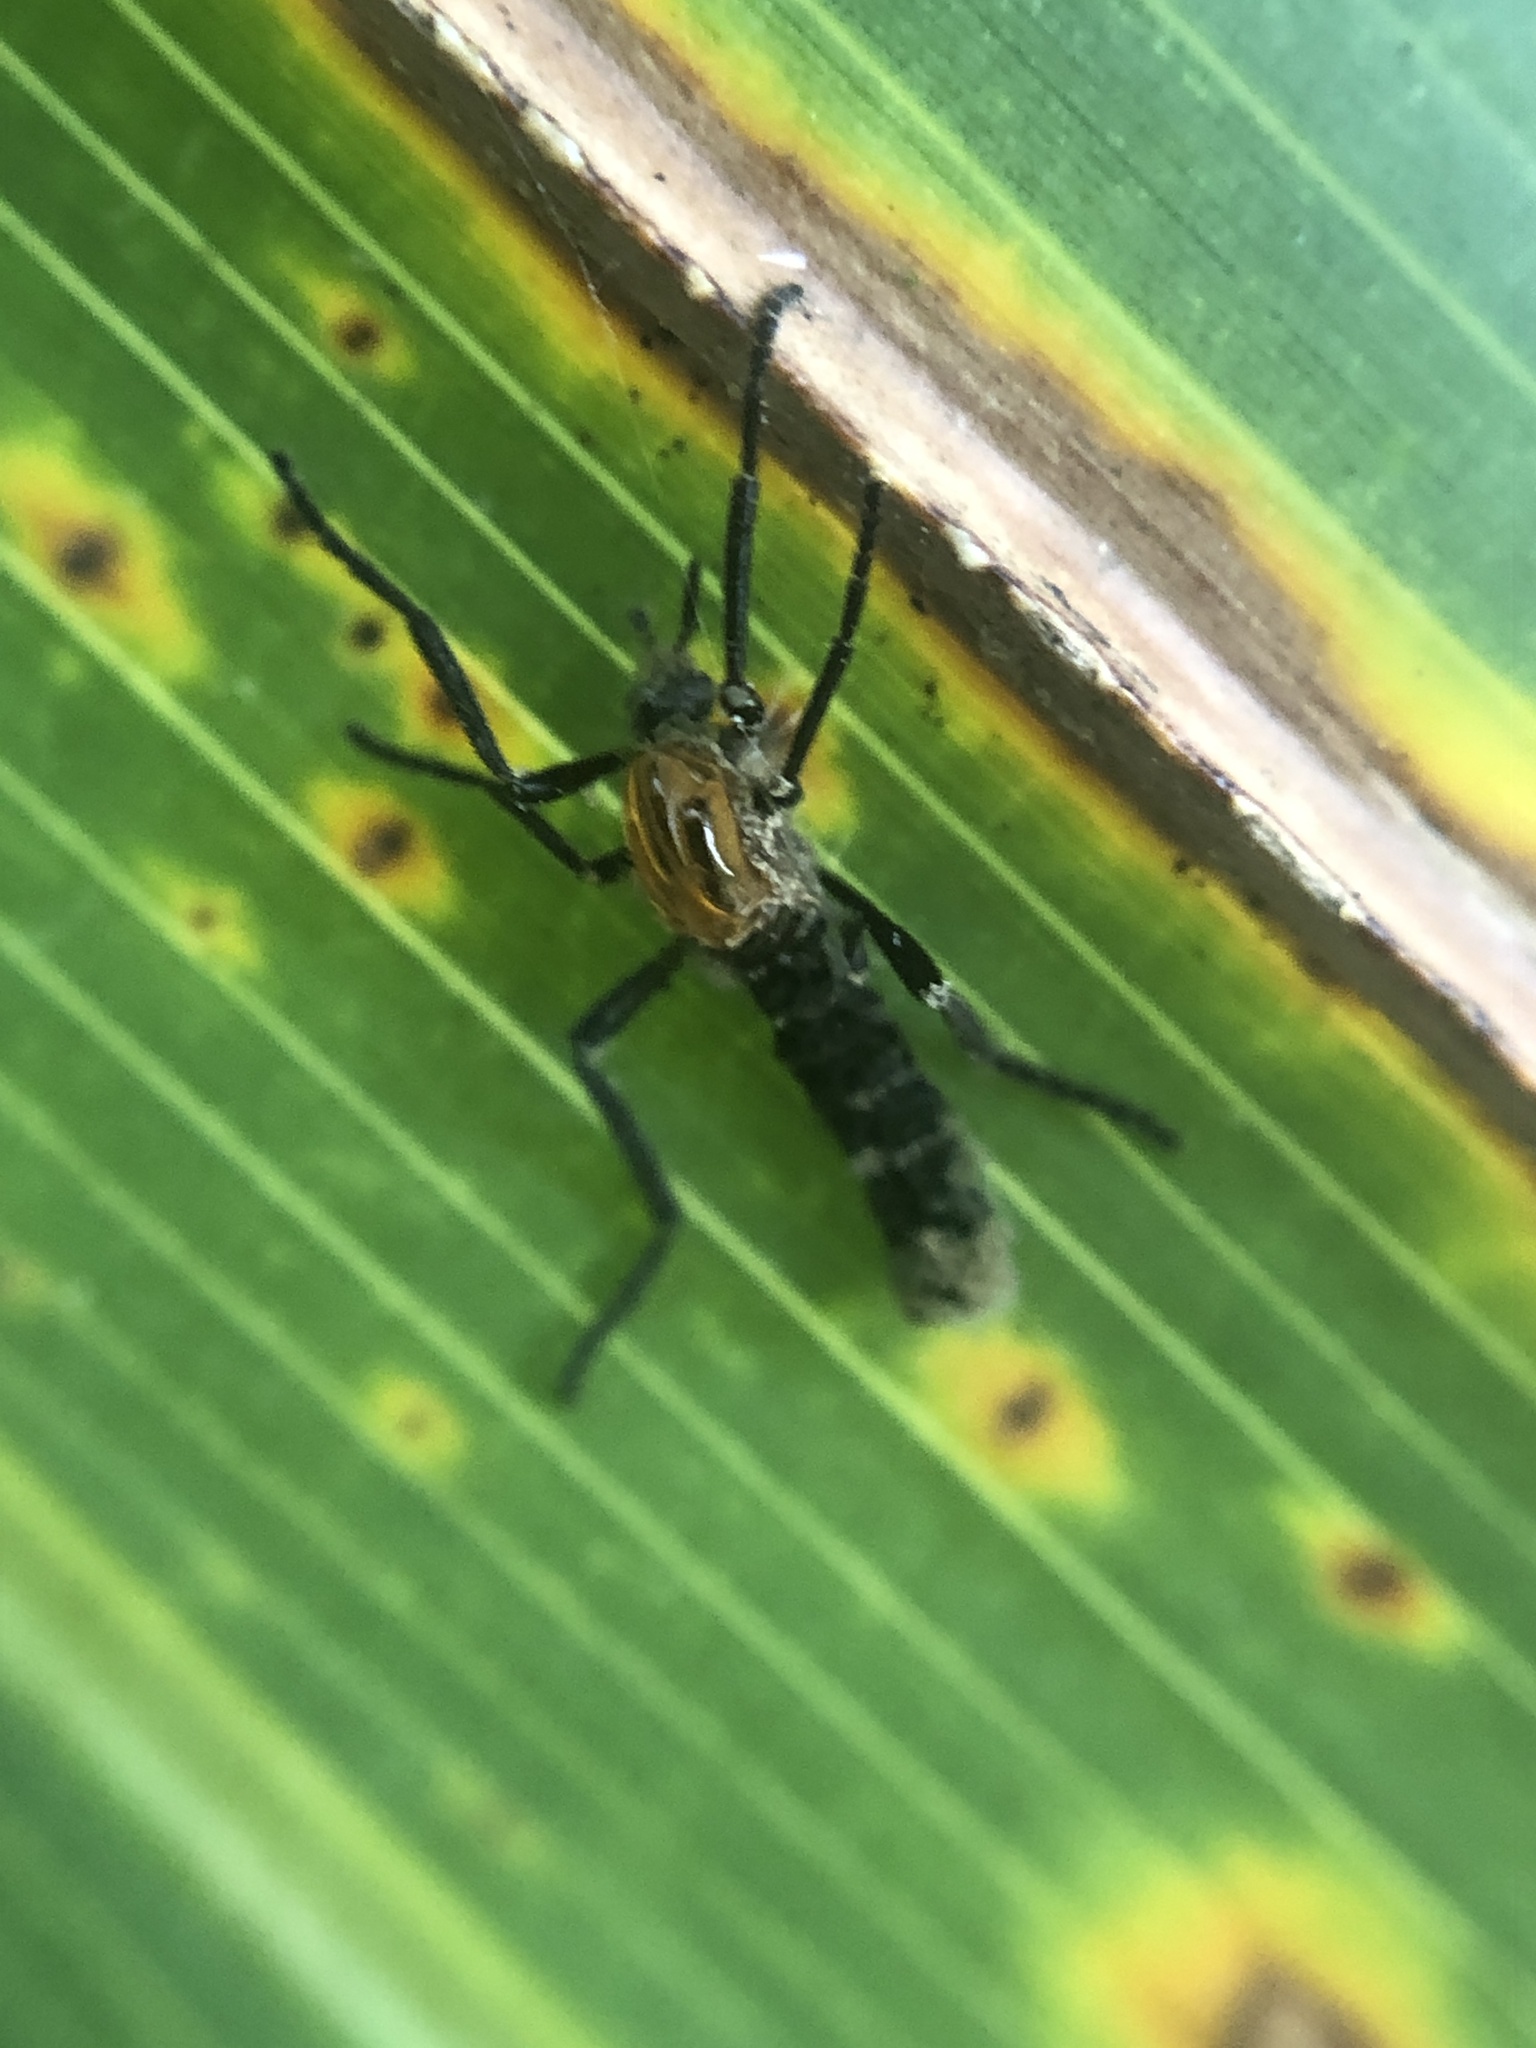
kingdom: Animalia
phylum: Arthropoda
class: Insecta
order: Diptera
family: Bibionidae
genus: Plecia
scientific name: Plecia nearctica
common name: March fly
